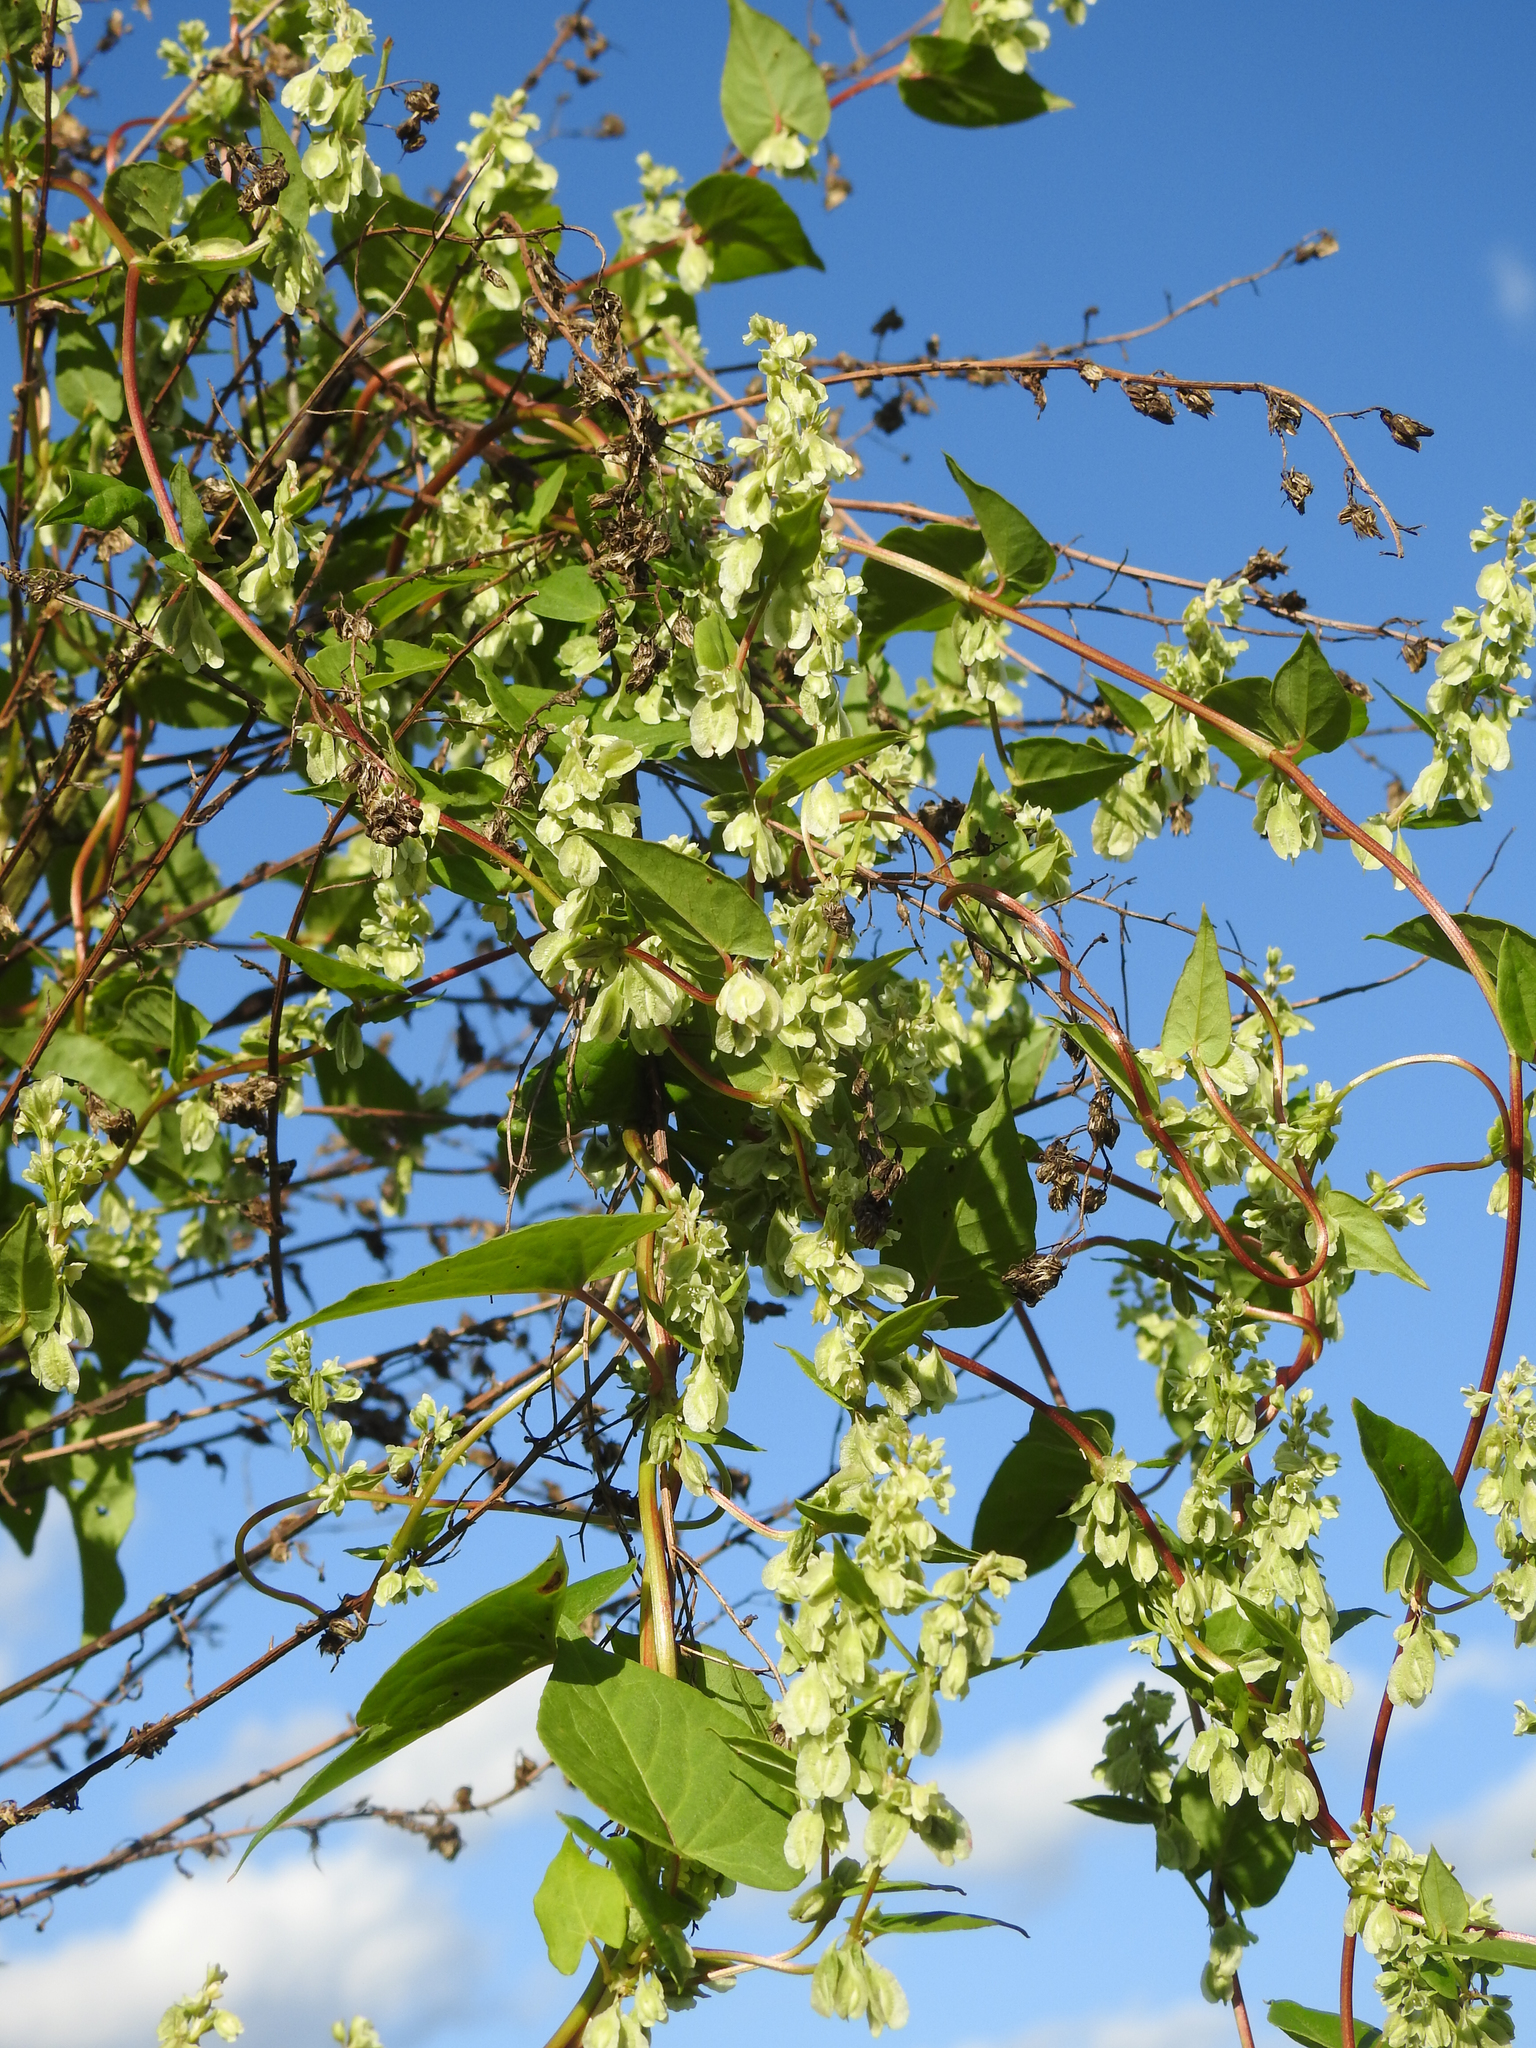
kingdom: Plantae
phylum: Tracheophyta
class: Magnoliopsida
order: Caryophyllales
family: Polygonaceae
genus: Fallopia
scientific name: Fallopia scandens
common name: Climbing false buckwheat
